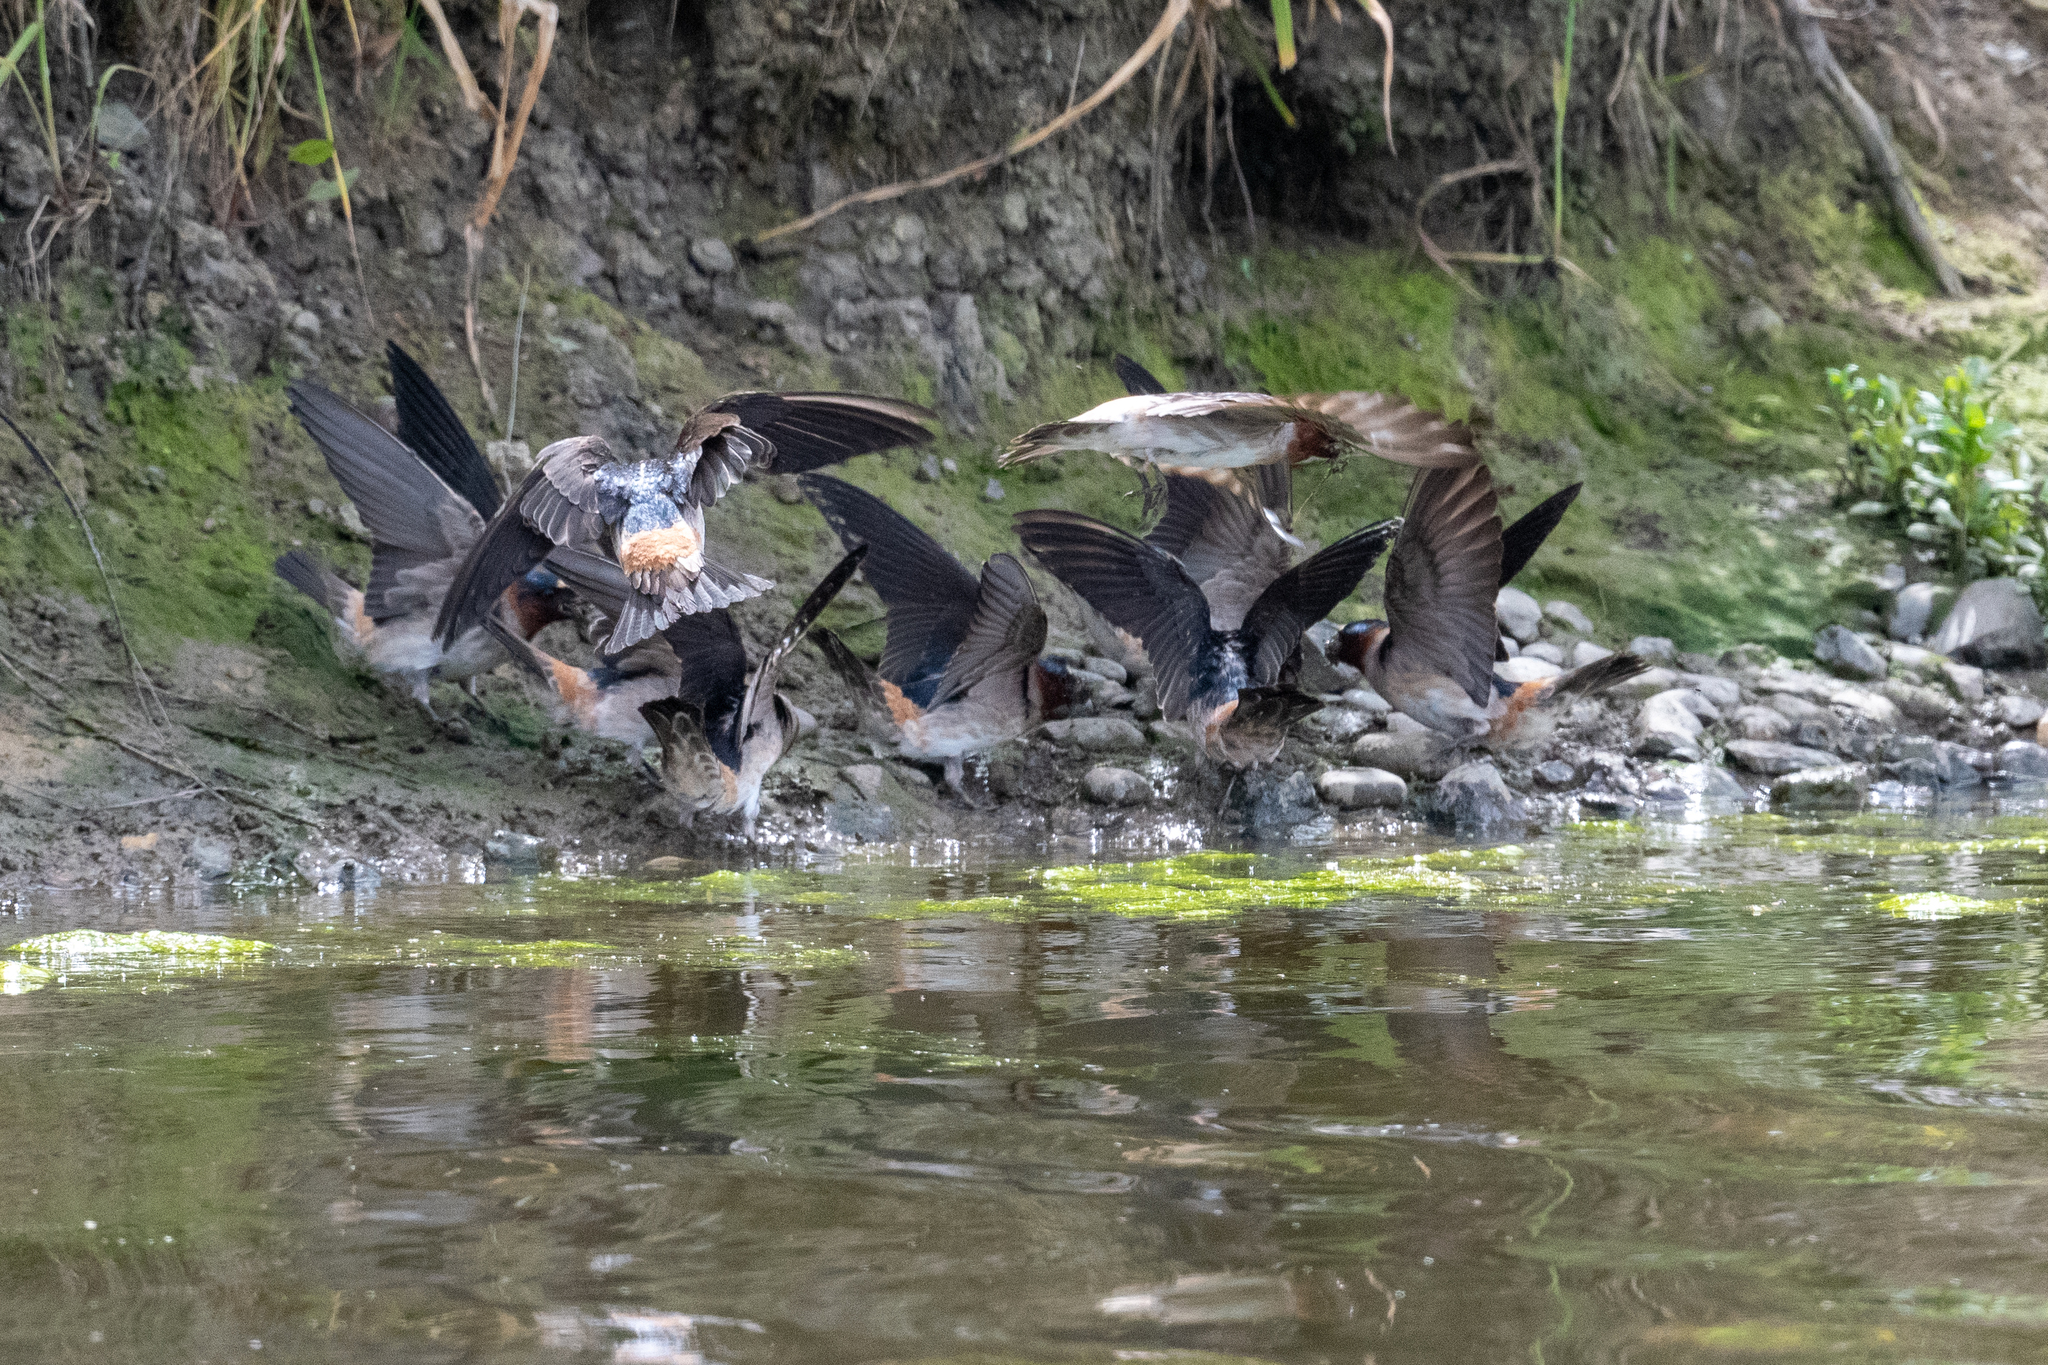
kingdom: Animalia
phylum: Chordata
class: Aves
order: Passeriformes
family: Hirundinidae
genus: Petrochelidon
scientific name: Petrochelidon pyrrhonota
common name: American cliff swallow
